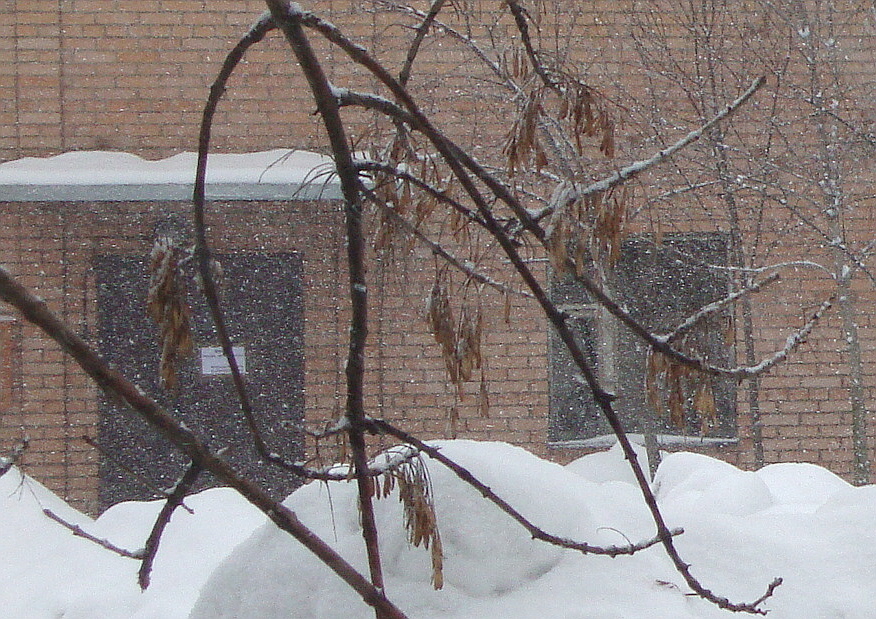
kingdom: Plantae
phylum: Tracheophyta
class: Magnoliopsida
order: Lamiales
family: Oleaceae
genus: Fraxinus
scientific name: Fraxinus pennsylvanica
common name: Green ash
